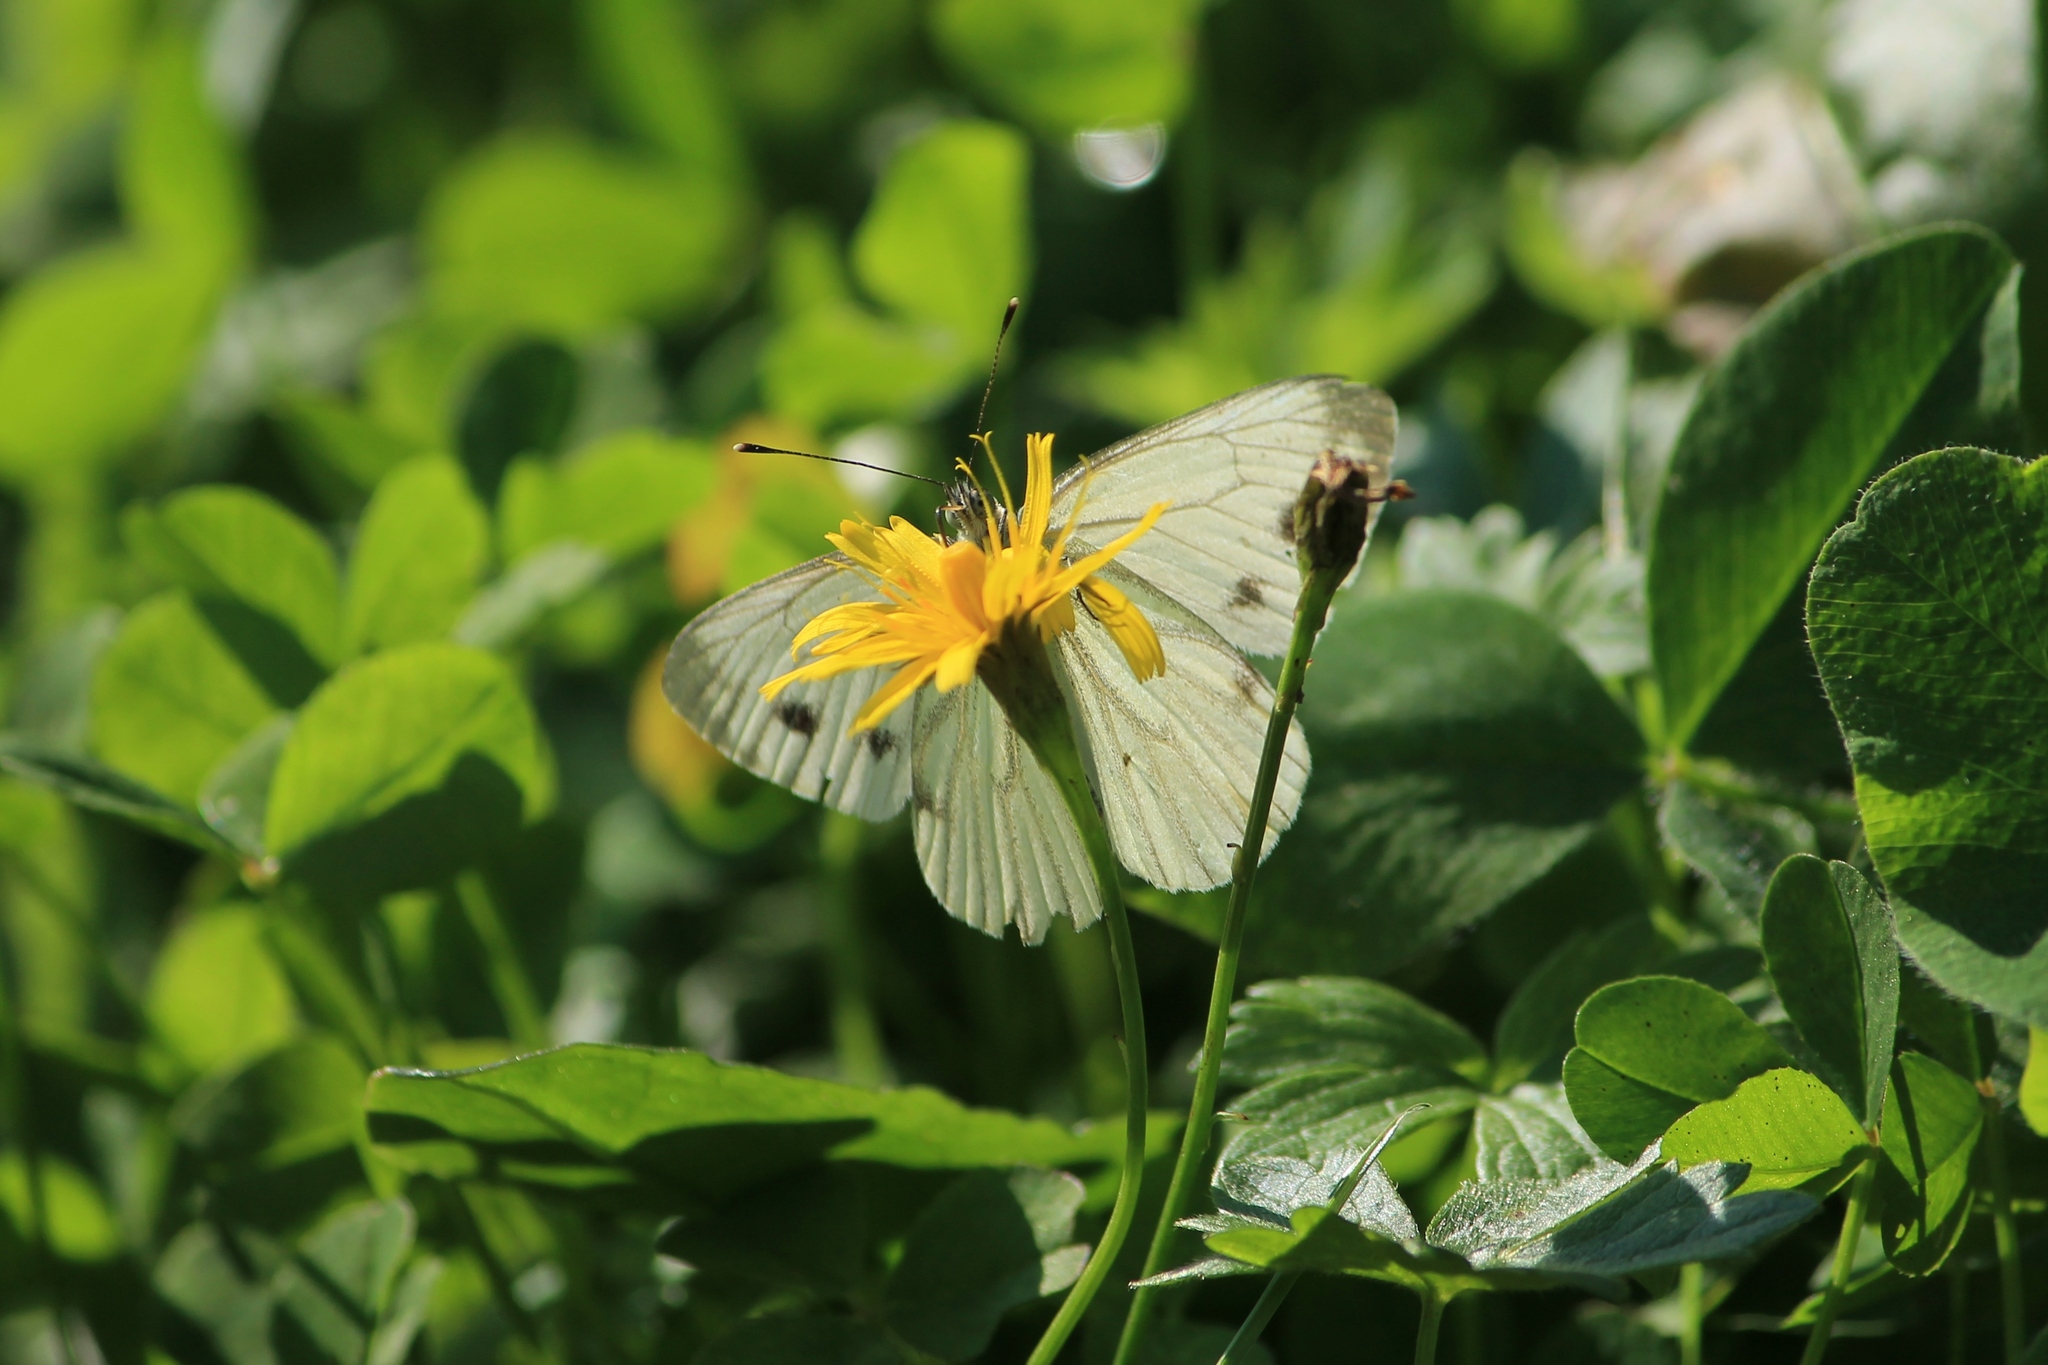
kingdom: Animalia
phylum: Arthropoda
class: Insecta
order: Lepidoptera
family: Pieridae
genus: Pieris
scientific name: Pieris napi
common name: Green-veined white
